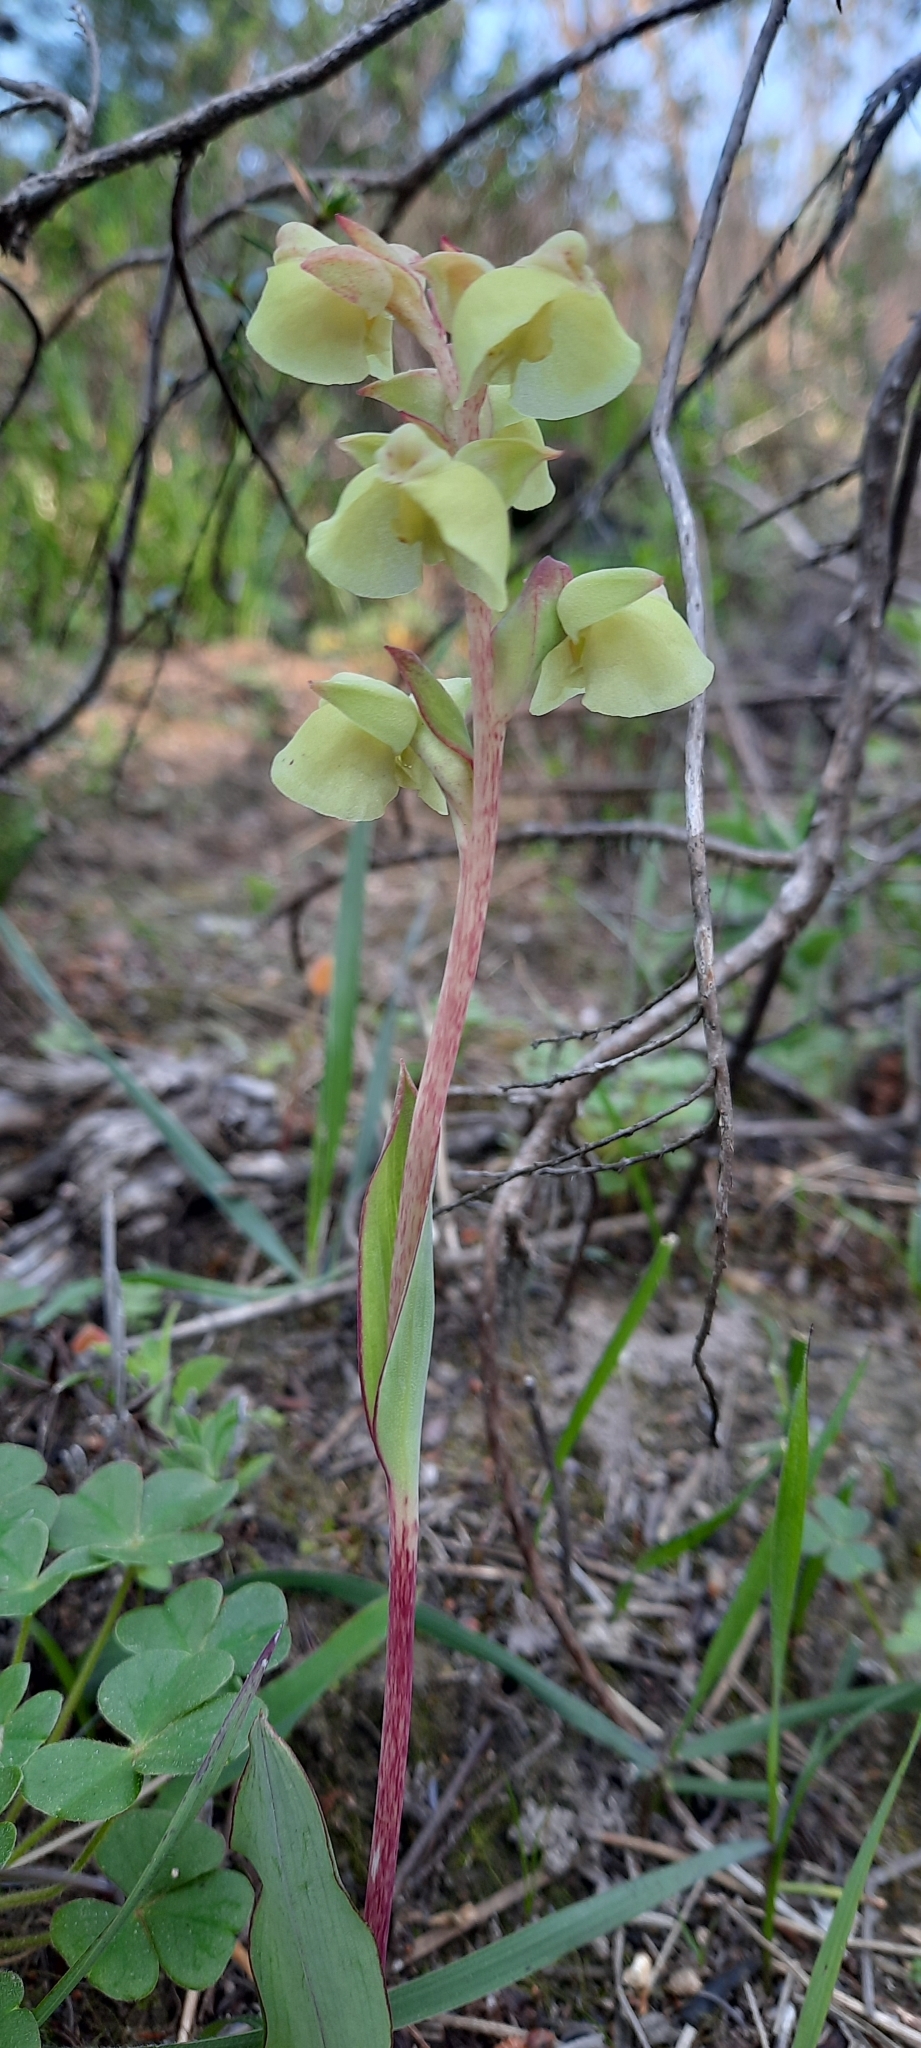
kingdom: Plantae
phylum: Tracheophyta
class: Liliopsida
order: Asparagales
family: Orchidaceae
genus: Pterygodium
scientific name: Pterygodium catholicum
